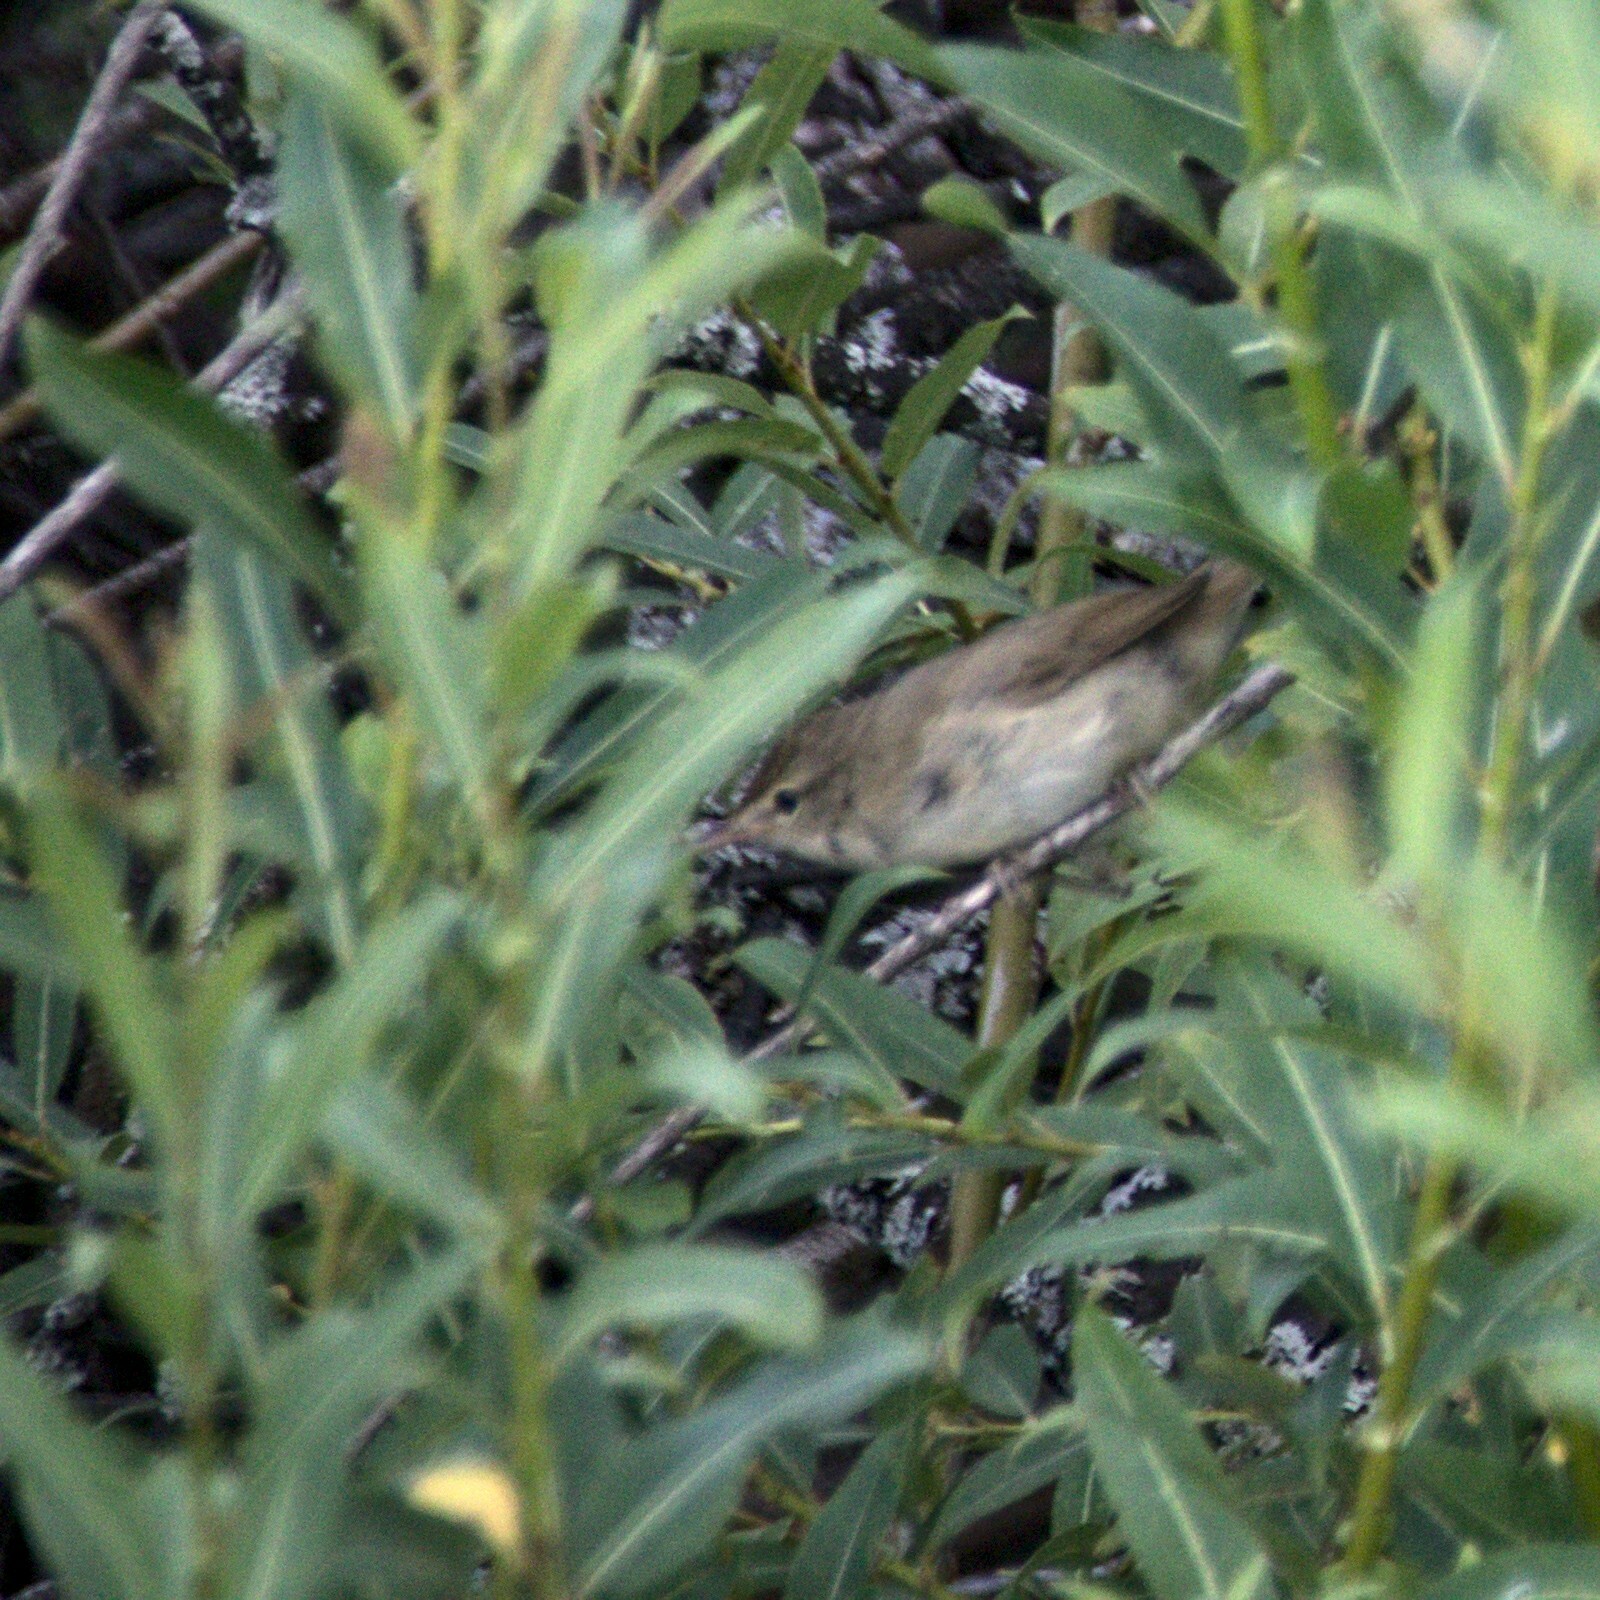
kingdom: Animalia
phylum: Chordata
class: Aves
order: Passeriformes
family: Acrocephalidae
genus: Acrocephalus
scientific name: Acrocephalus dumetorum
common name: Blyth's reed warbler
